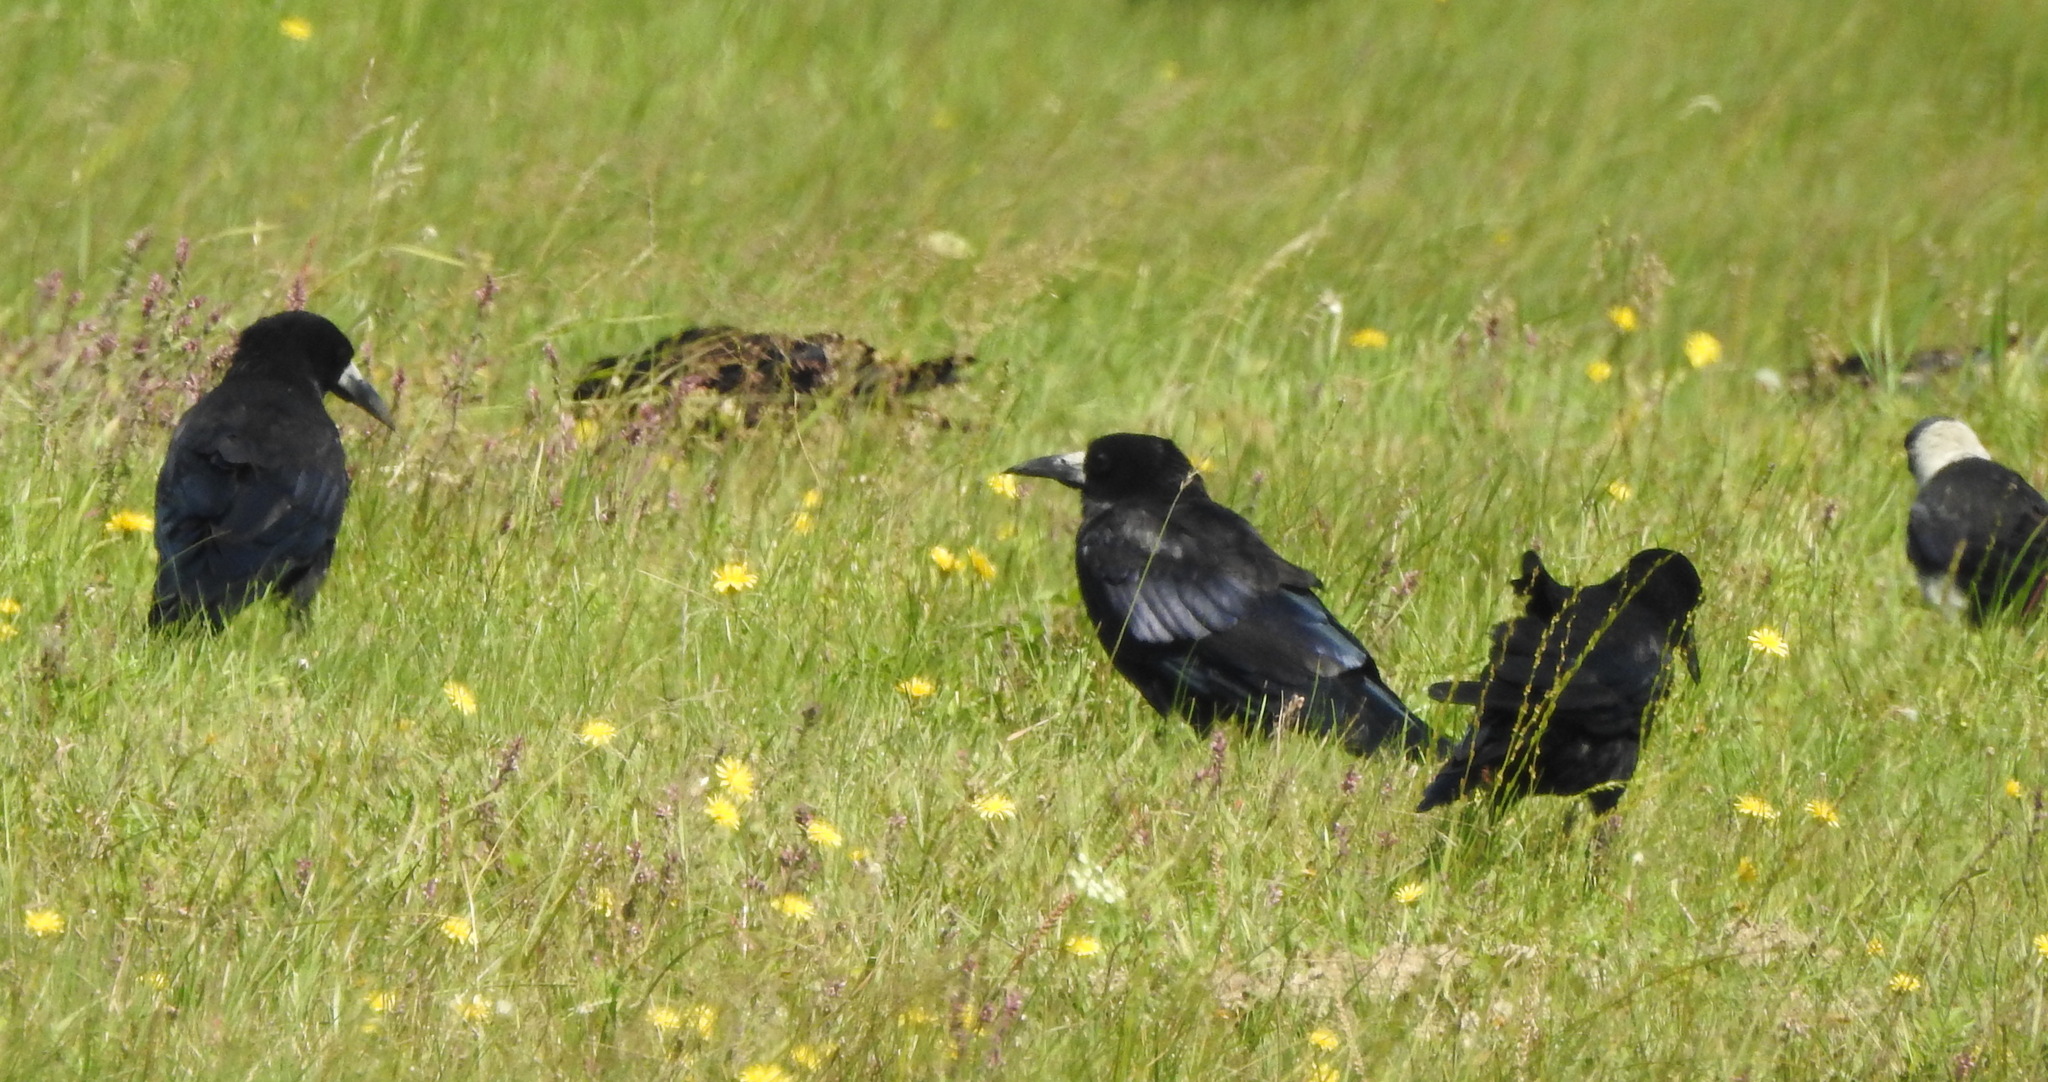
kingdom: Animalia
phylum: Chordata
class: Aves
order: Passeriformes
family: Corvidae
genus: Corvus
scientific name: Corvus frugilegus
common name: Rook
